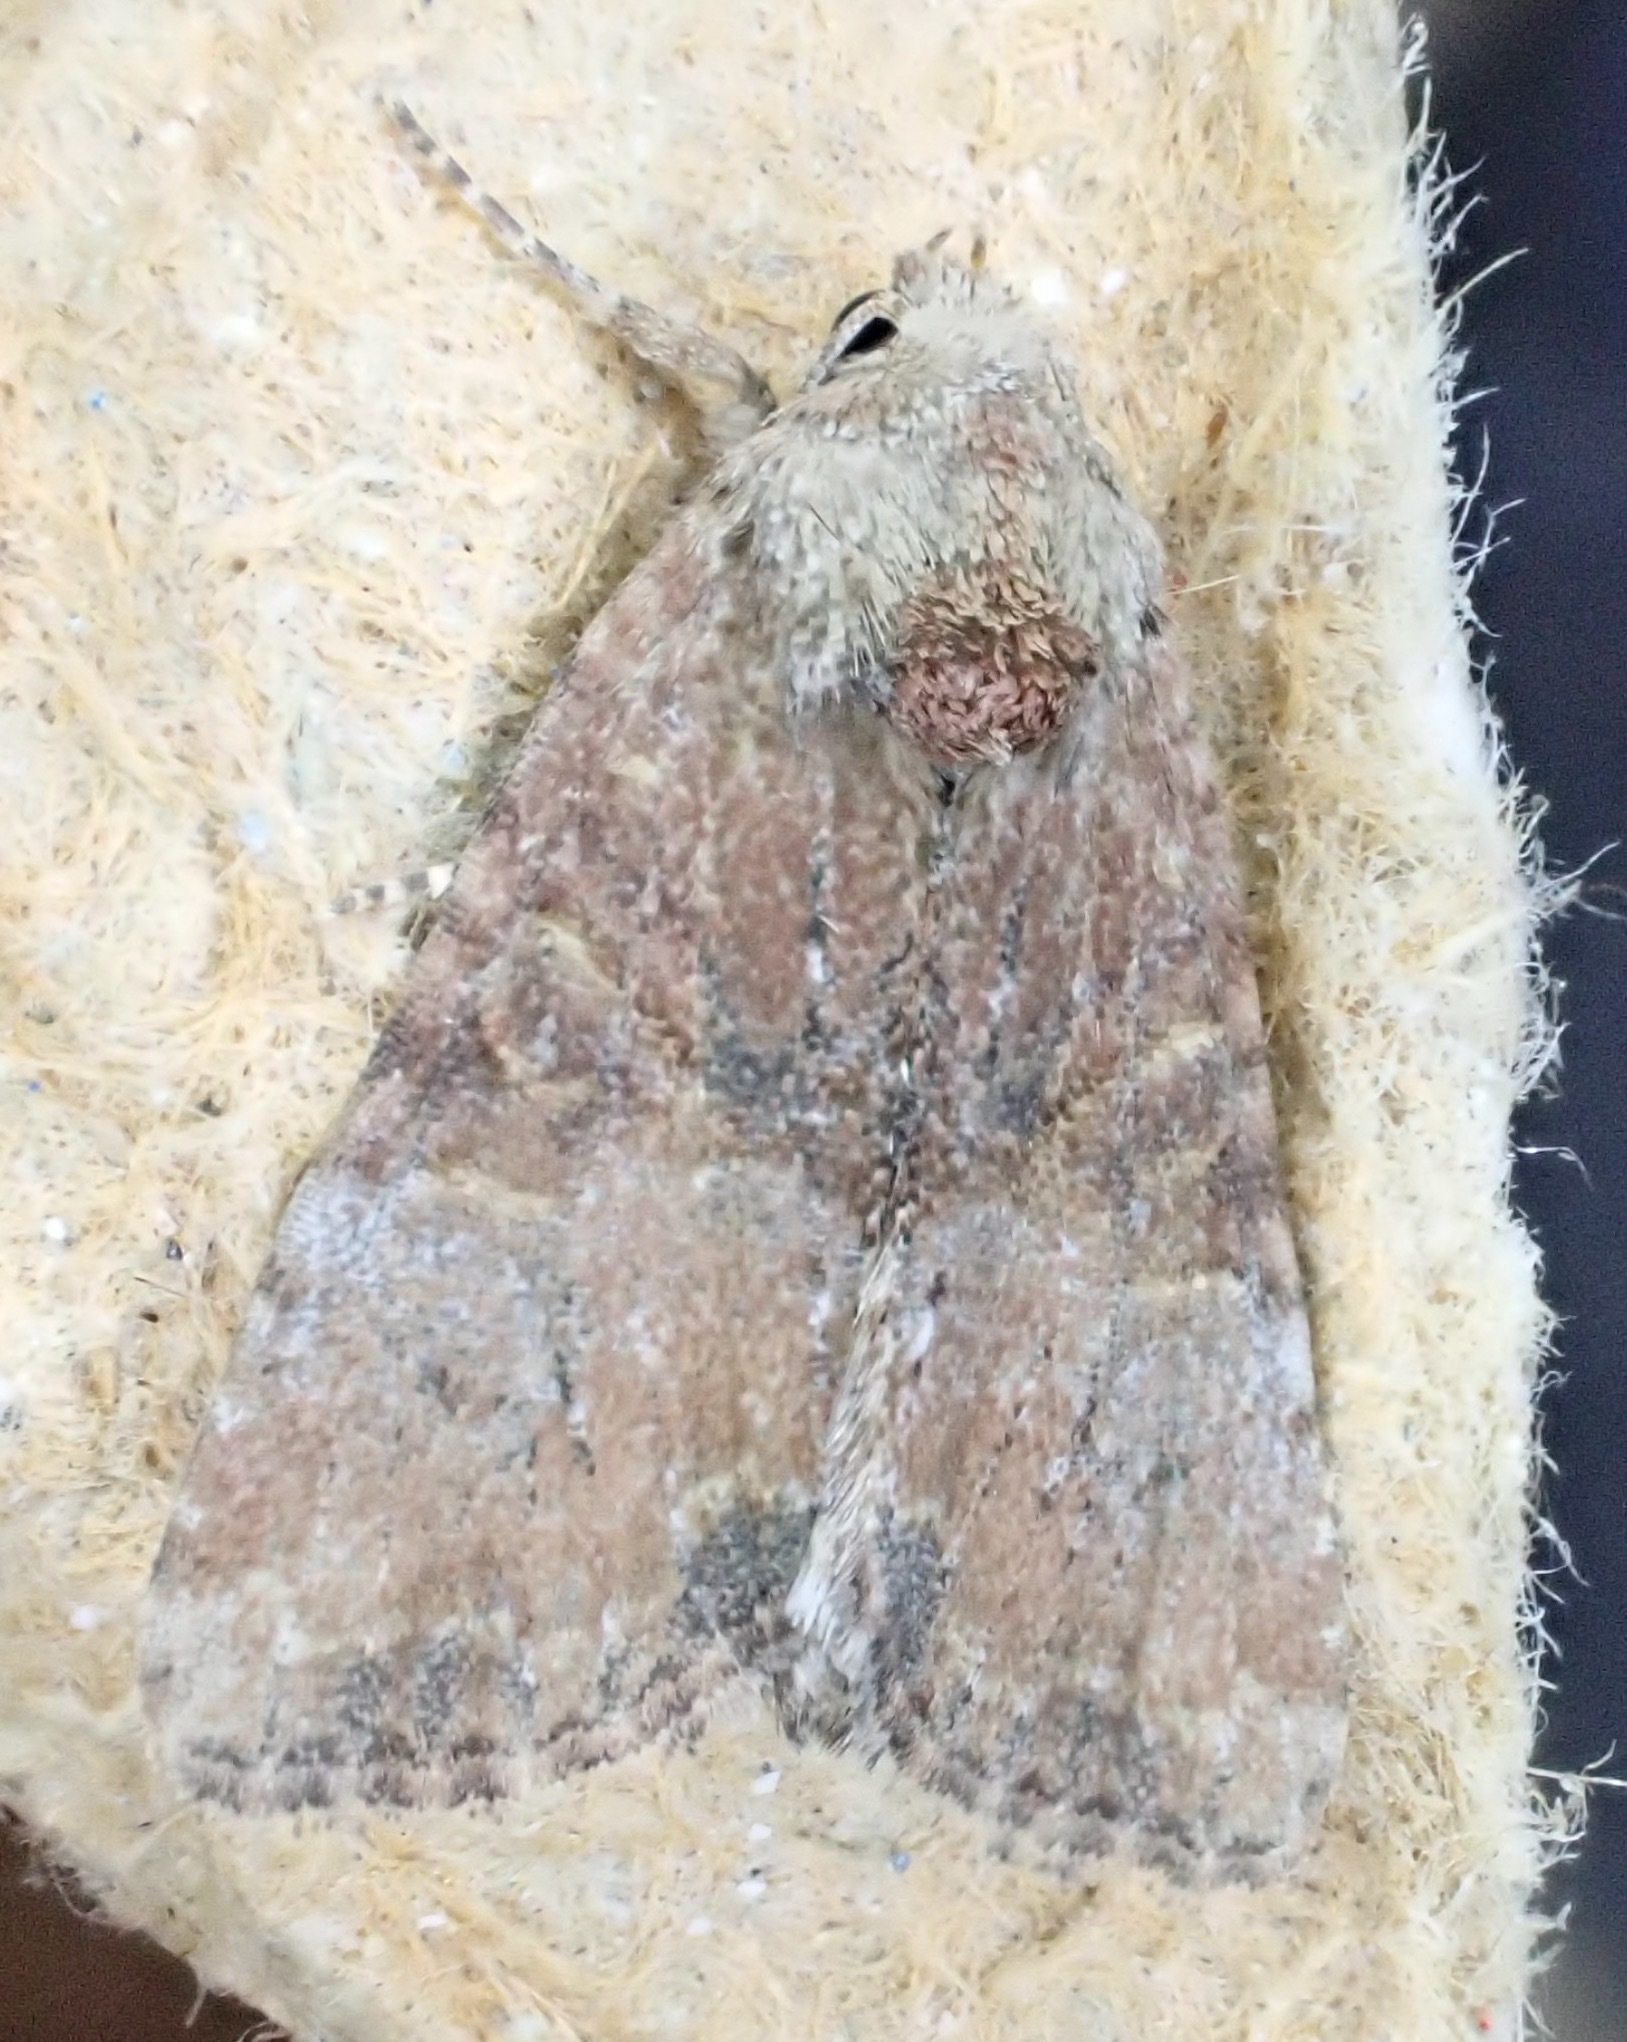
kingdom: Animalia
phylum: Arthropoda
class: Insecta
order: Lepidoptera
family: Noctuidae
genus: Mesoligia
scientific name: Mesoligia furuncula
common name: Cloaked minor
